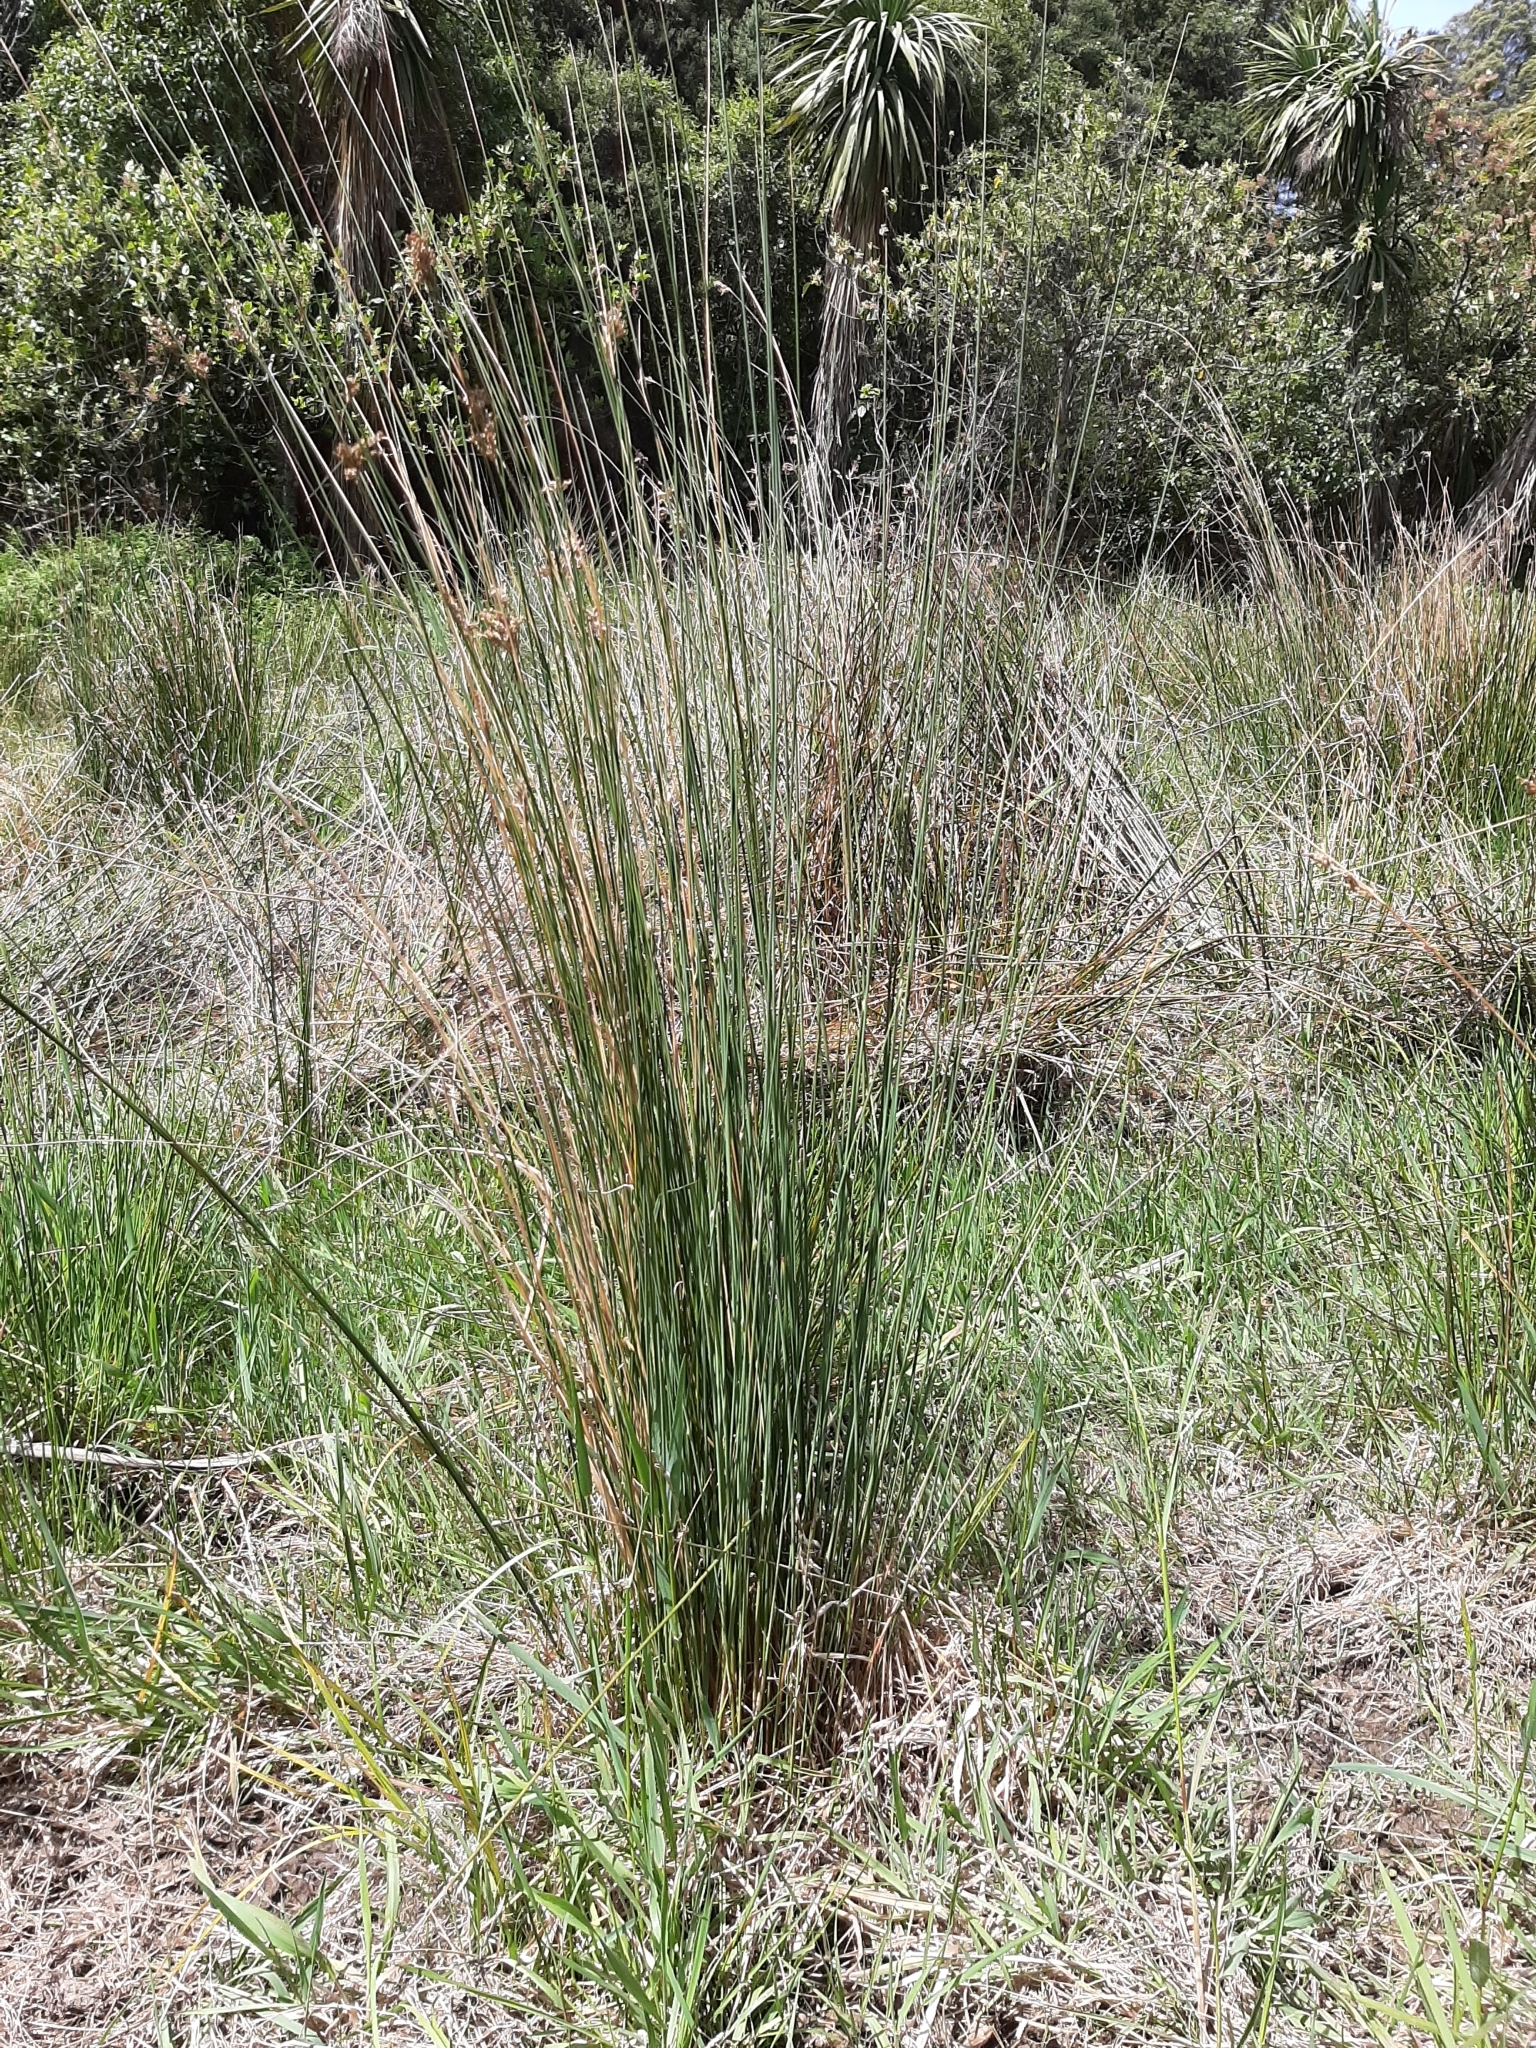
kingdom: Plantae
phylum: Tracheophyta
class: Liliopsida
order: Poales
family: Juncaceae
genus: Juncus
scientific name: Juncus sarophorus
